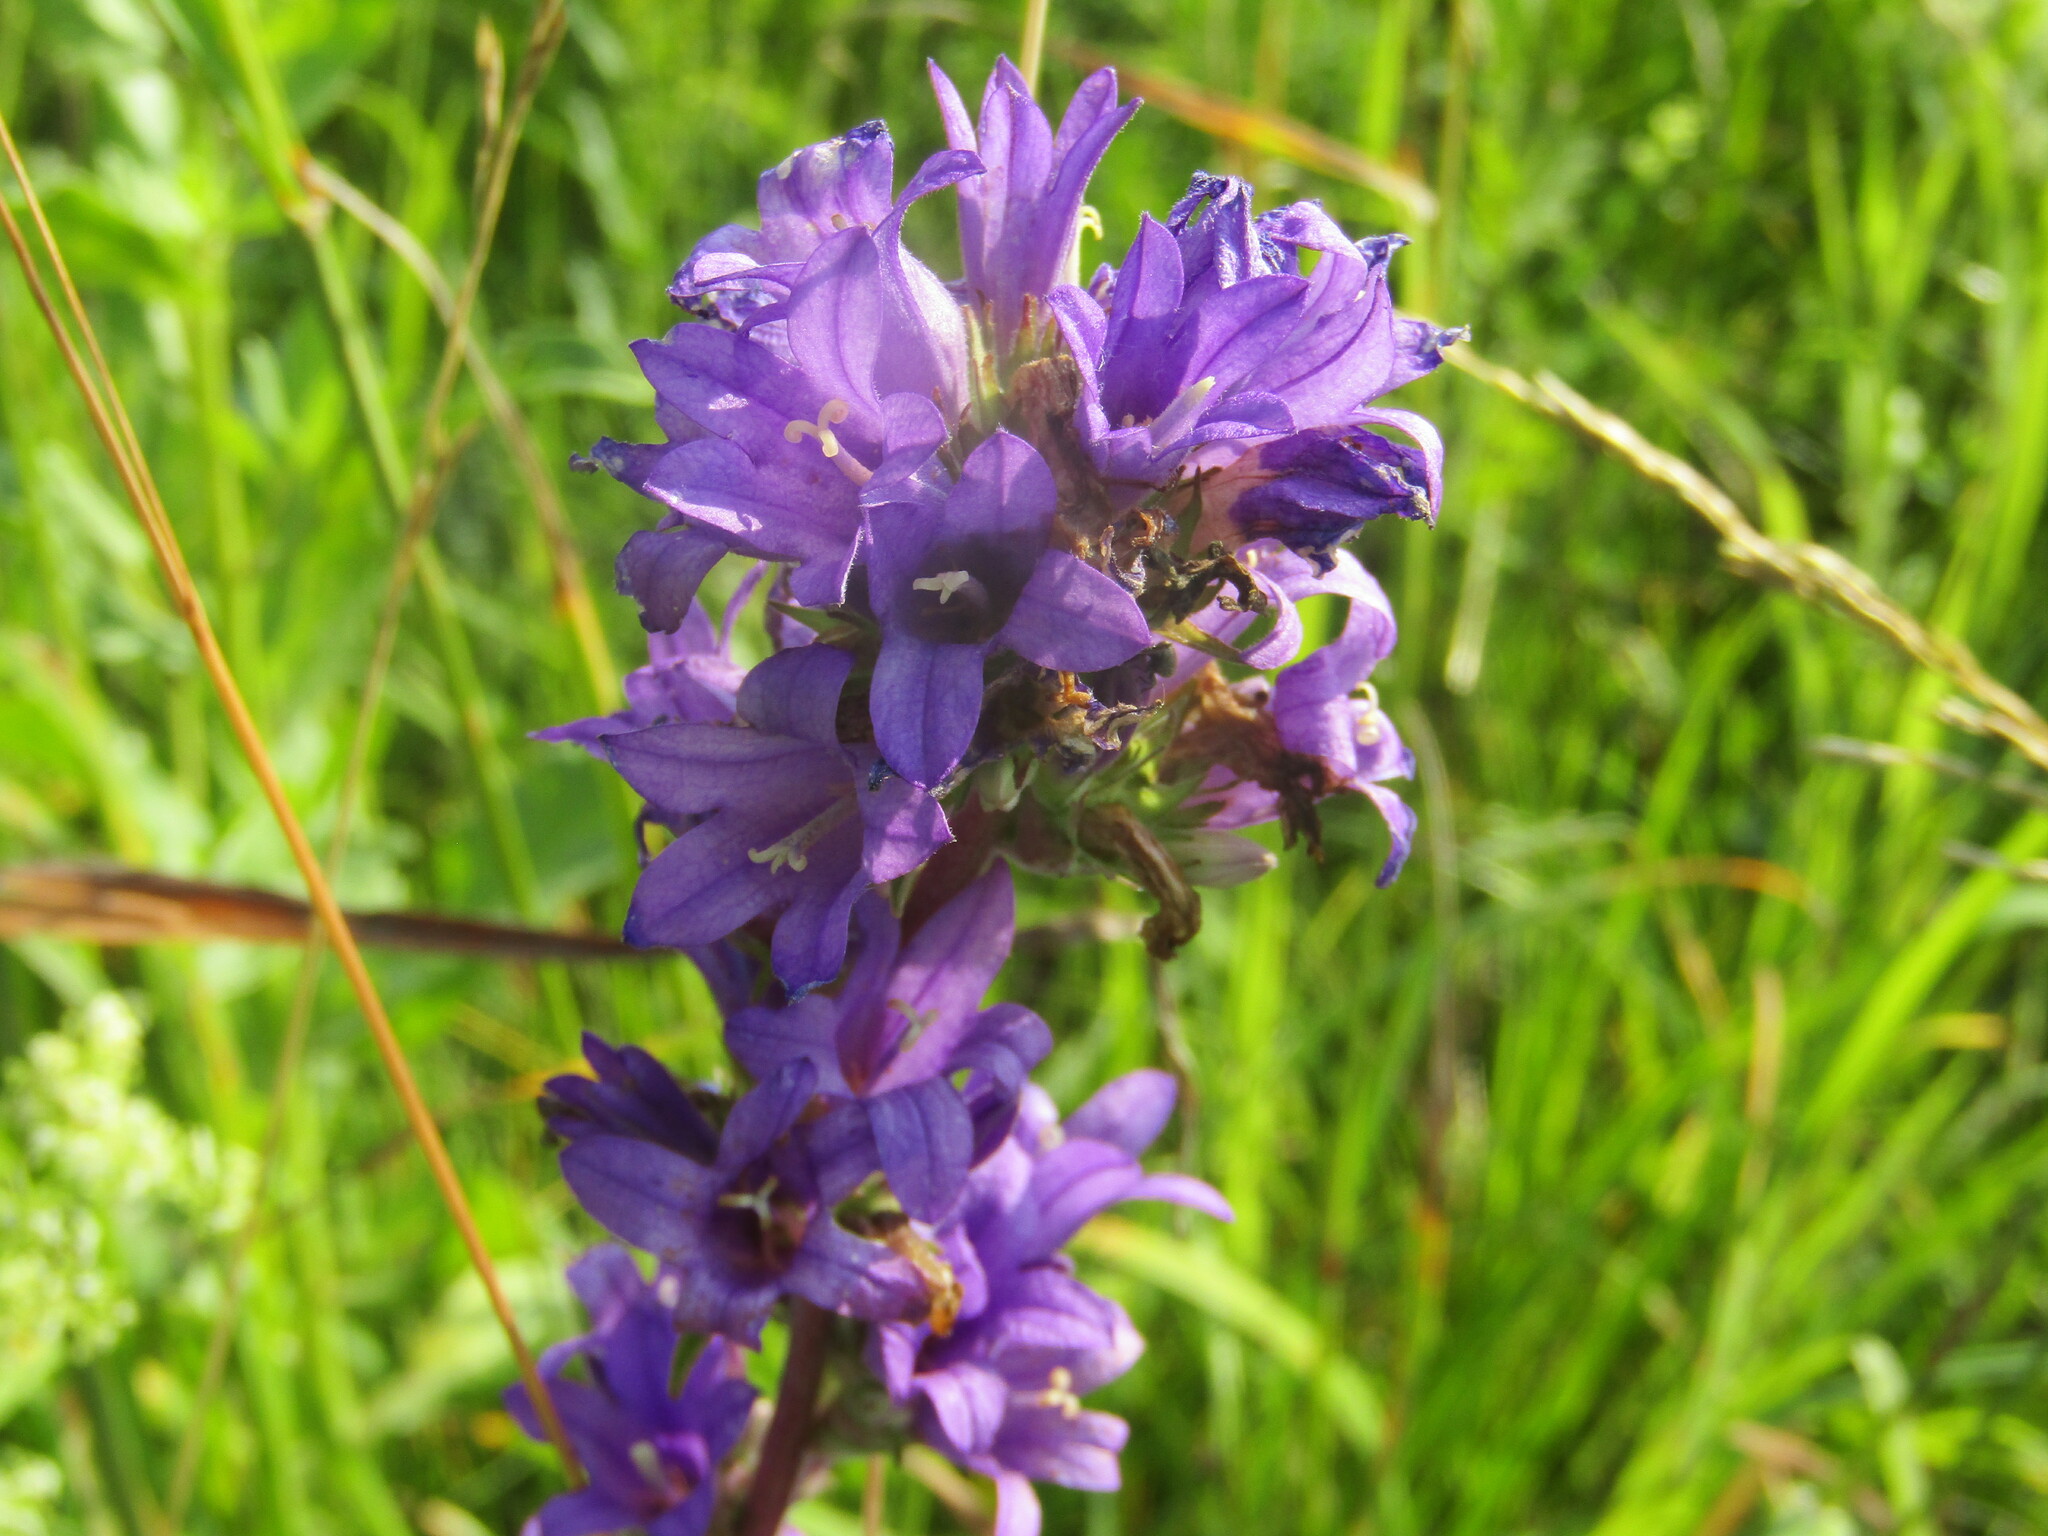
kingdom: Plantae
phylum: Tracheophyta
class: Magnoliopsida
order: Asterales
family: Campanulaceae
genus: Campanula
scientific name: Campanula glomerata
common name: Clustered bellflower
